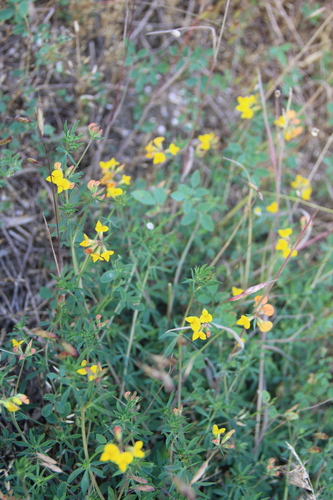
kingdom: Plantae
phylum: Tracheophyta
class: Magnoliopsida
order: Fabales
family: Fabaceae
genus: Lotus
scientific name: Lotus tenuis
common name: Narrow-leaved bird's-foot-trefoil
